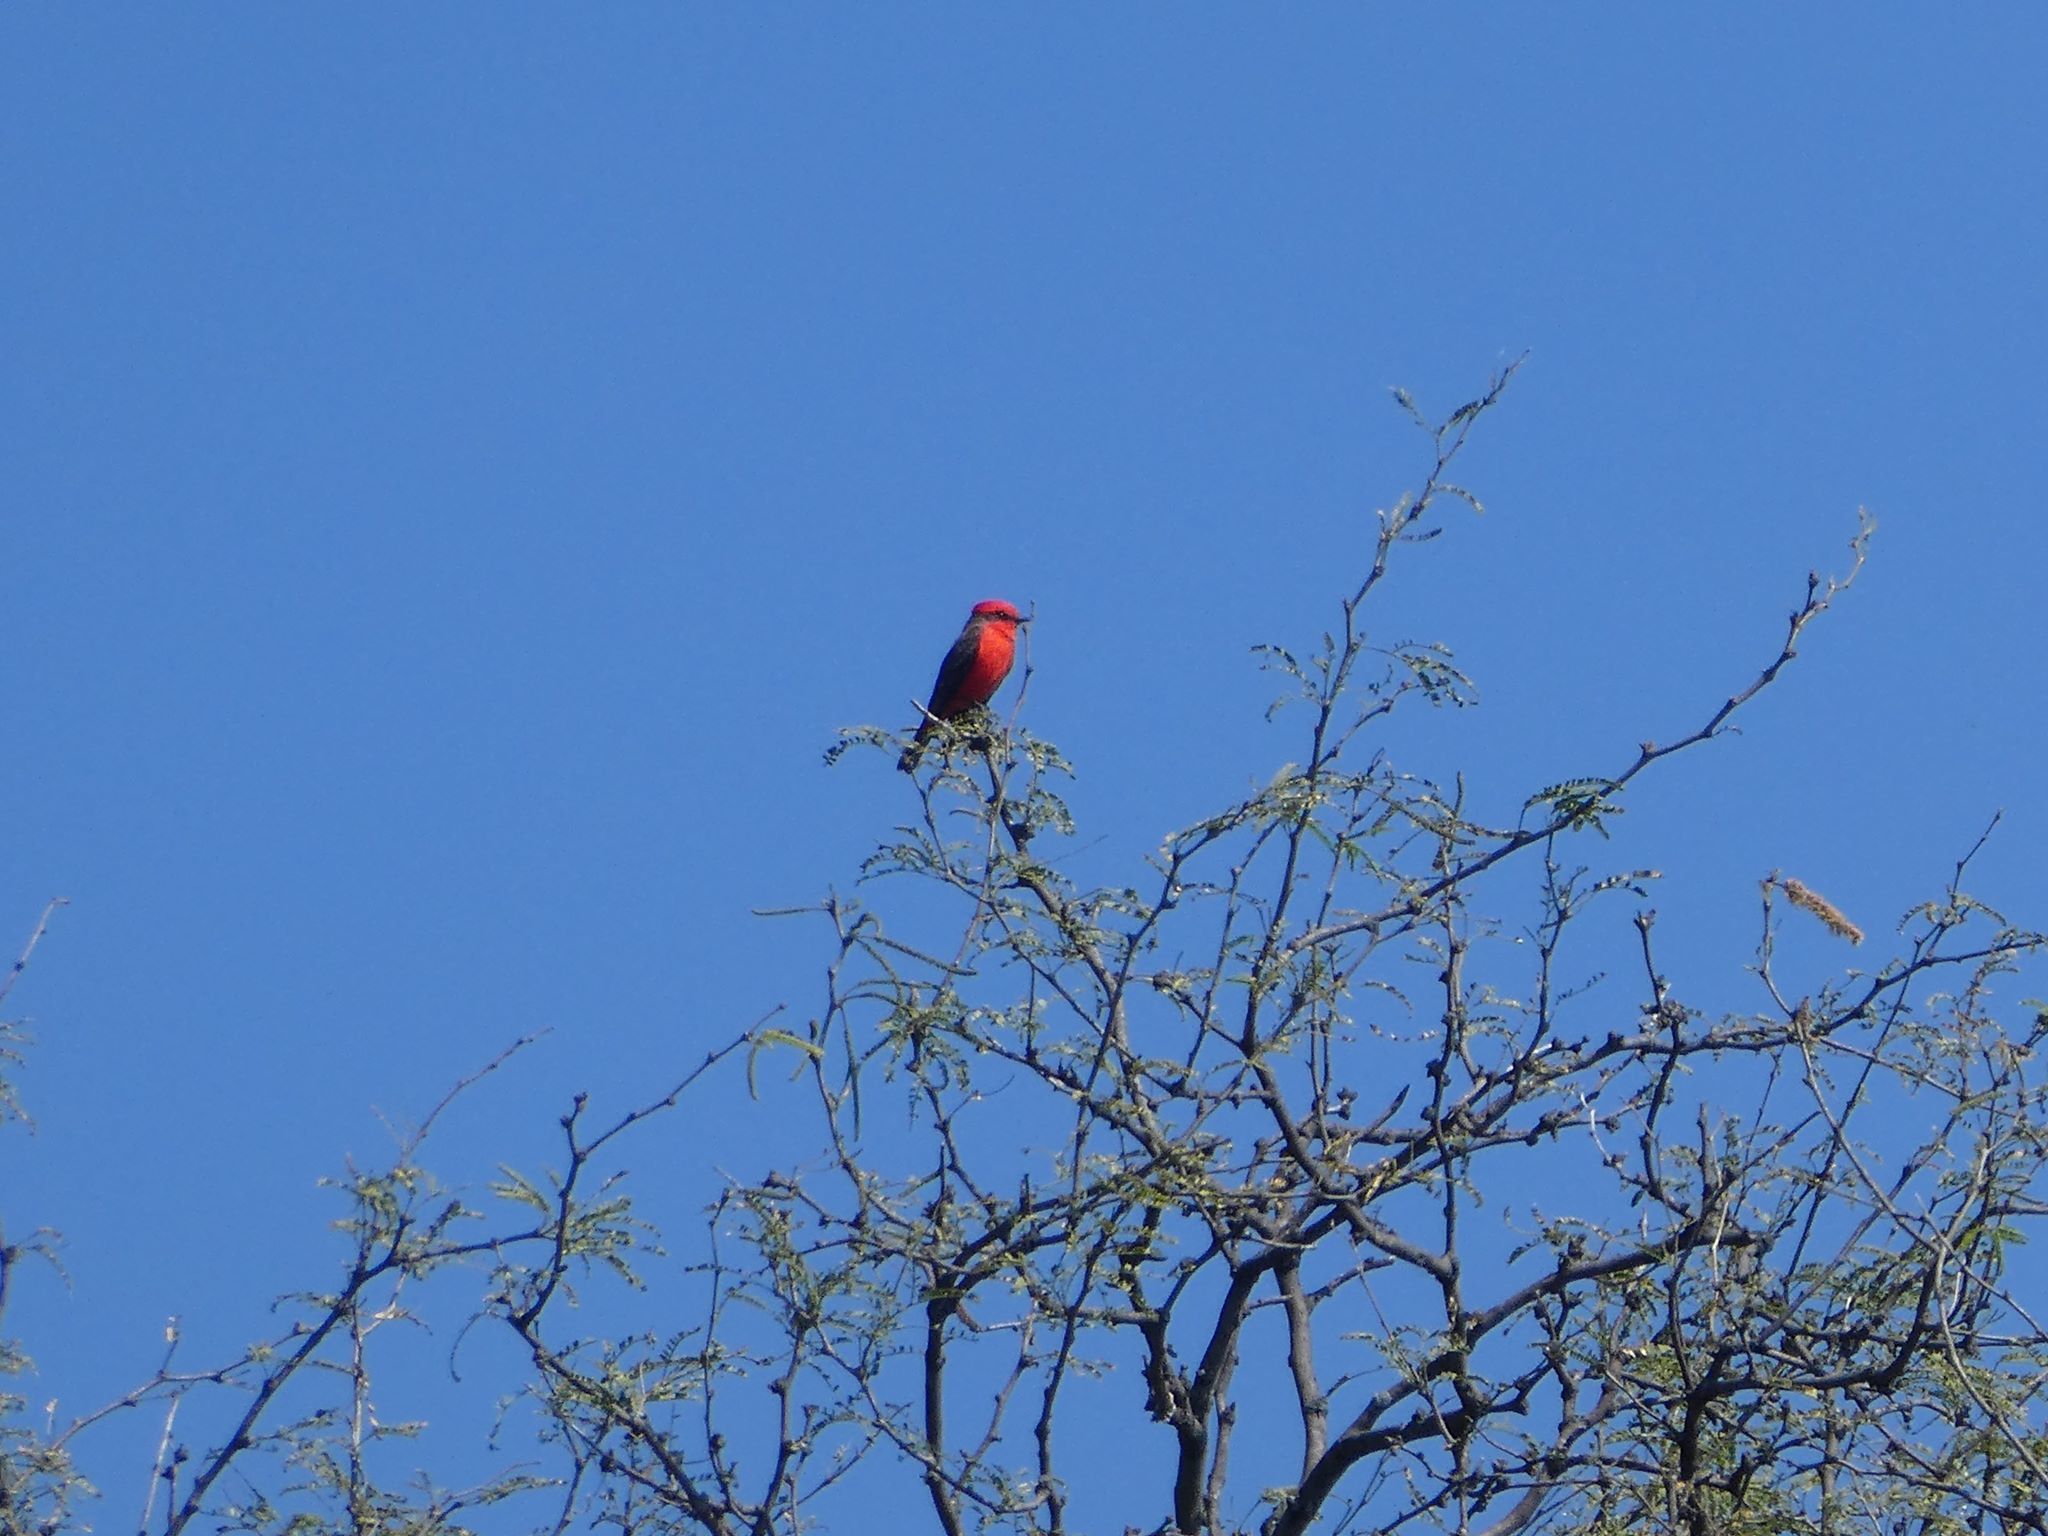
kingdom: Animalia
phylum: Chordata
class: Aves
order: Passeriformes
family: Tyrannidae
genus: Pyrocephalus
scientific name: Pyrocephalus rubinus
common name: Vermilion flycatcher
